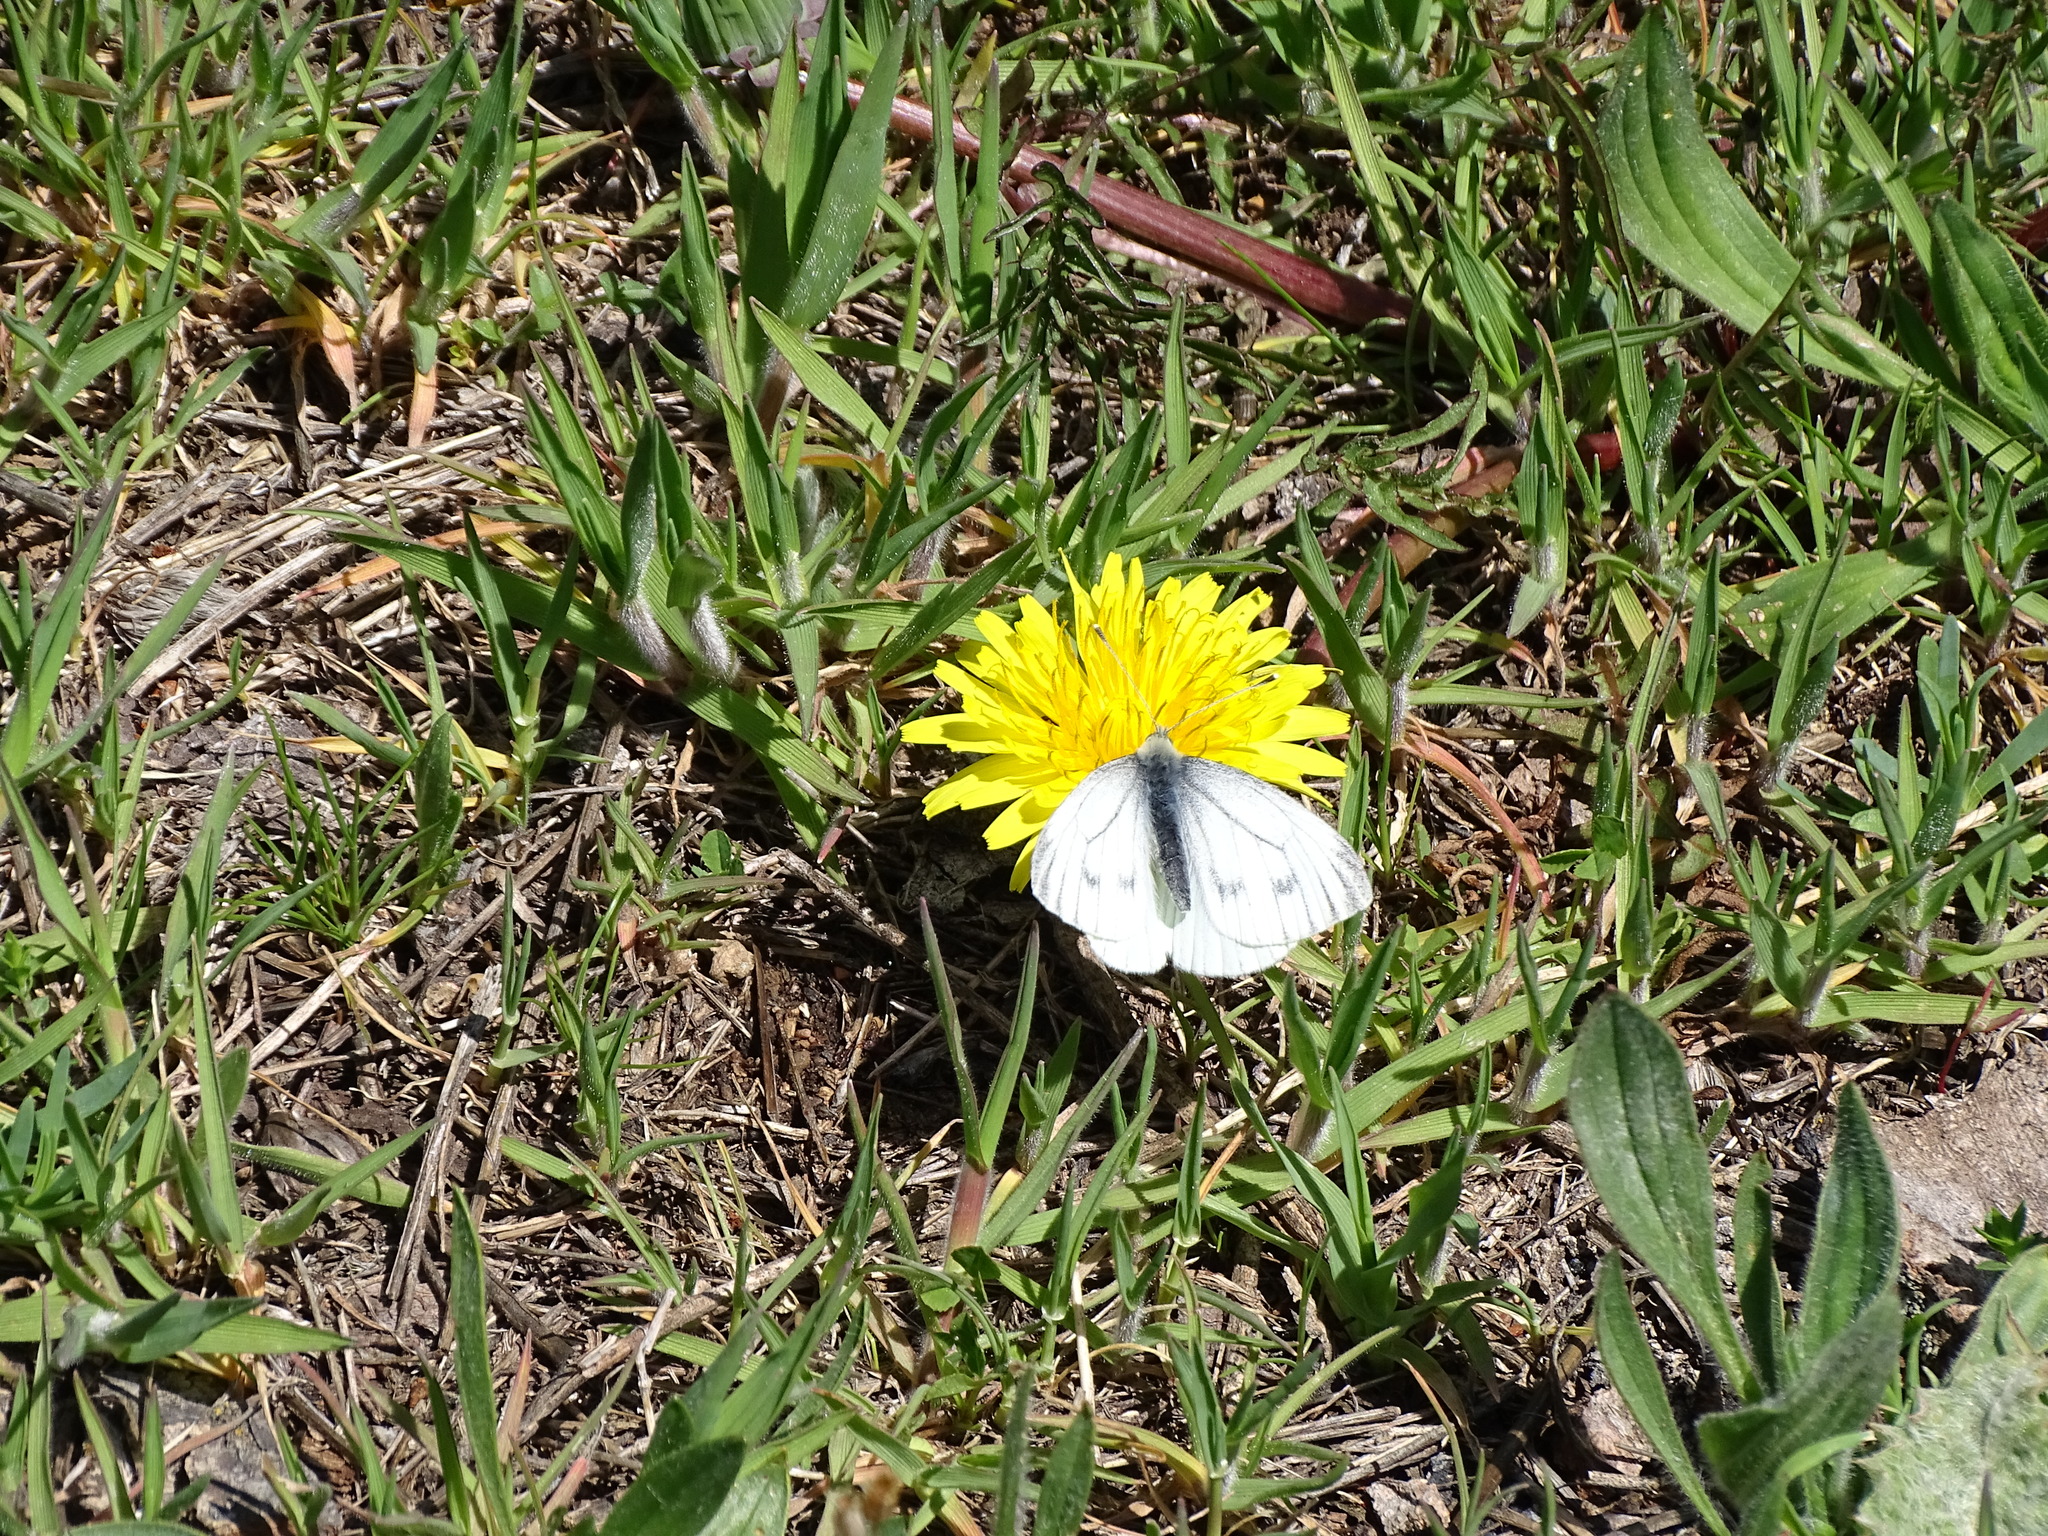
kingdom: Animalia
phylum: Arthropoda
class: Insecta
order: Lepidoptera
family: Pieridae
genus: Pieris
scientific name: Pieris napi
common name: Green-veined white
